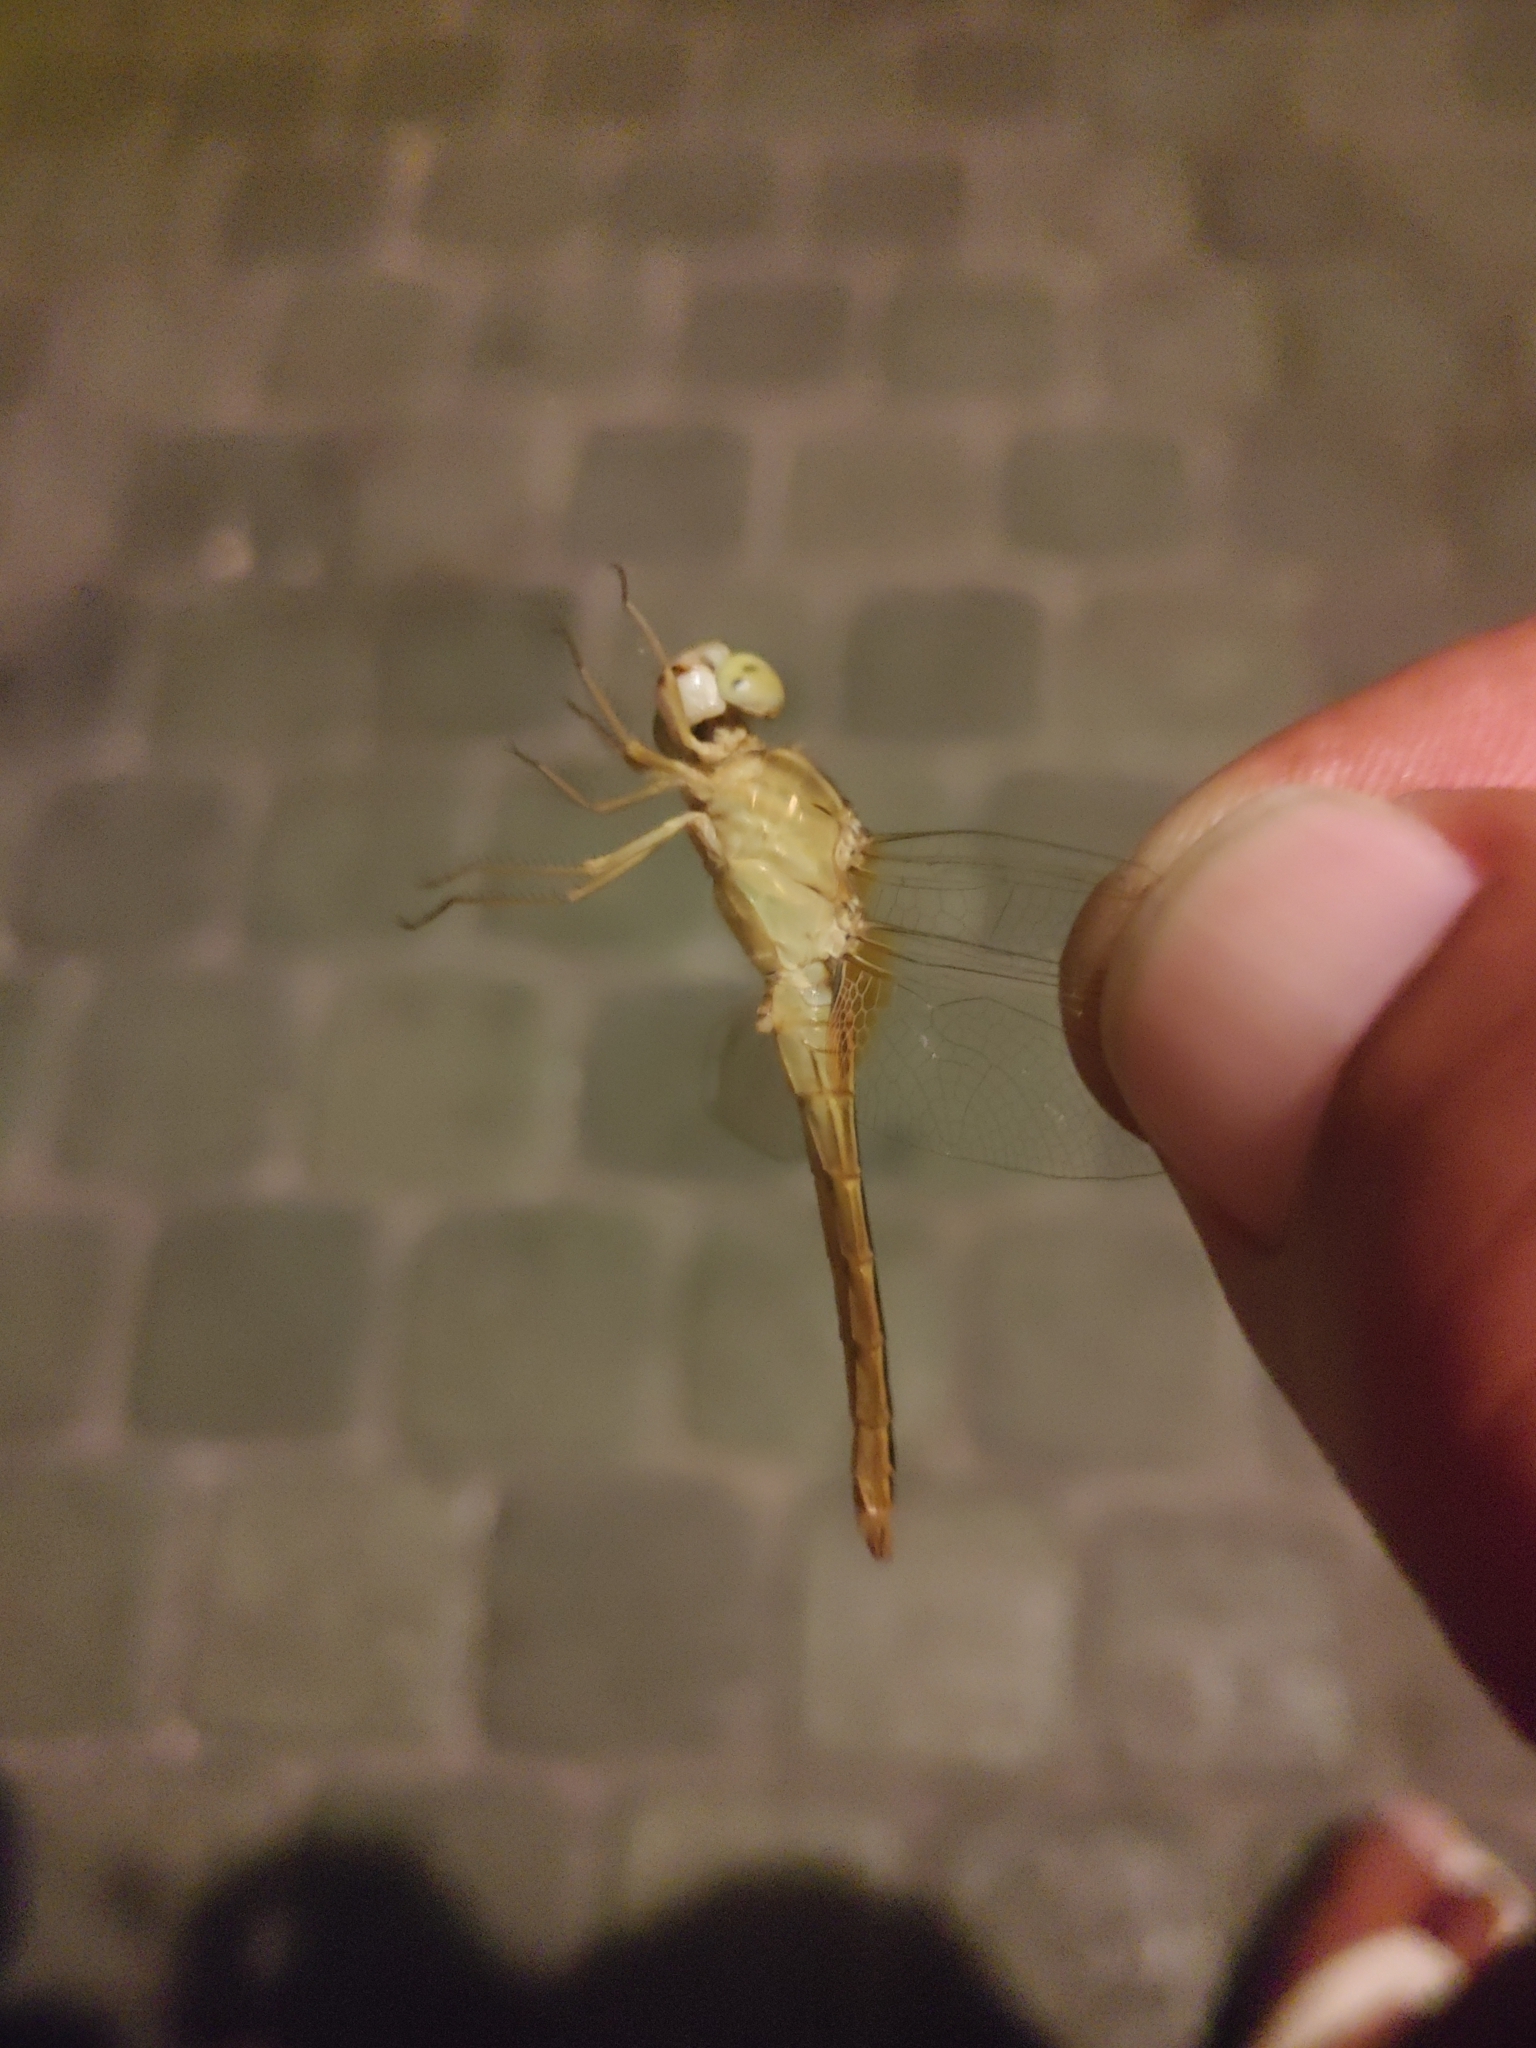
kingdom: Animalia
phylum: Arthropoda
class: Insecta
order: Odonata
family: Libellulidae
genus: Crocothemis
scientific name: Crocothemis servilia
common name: Scarlet skimmer
